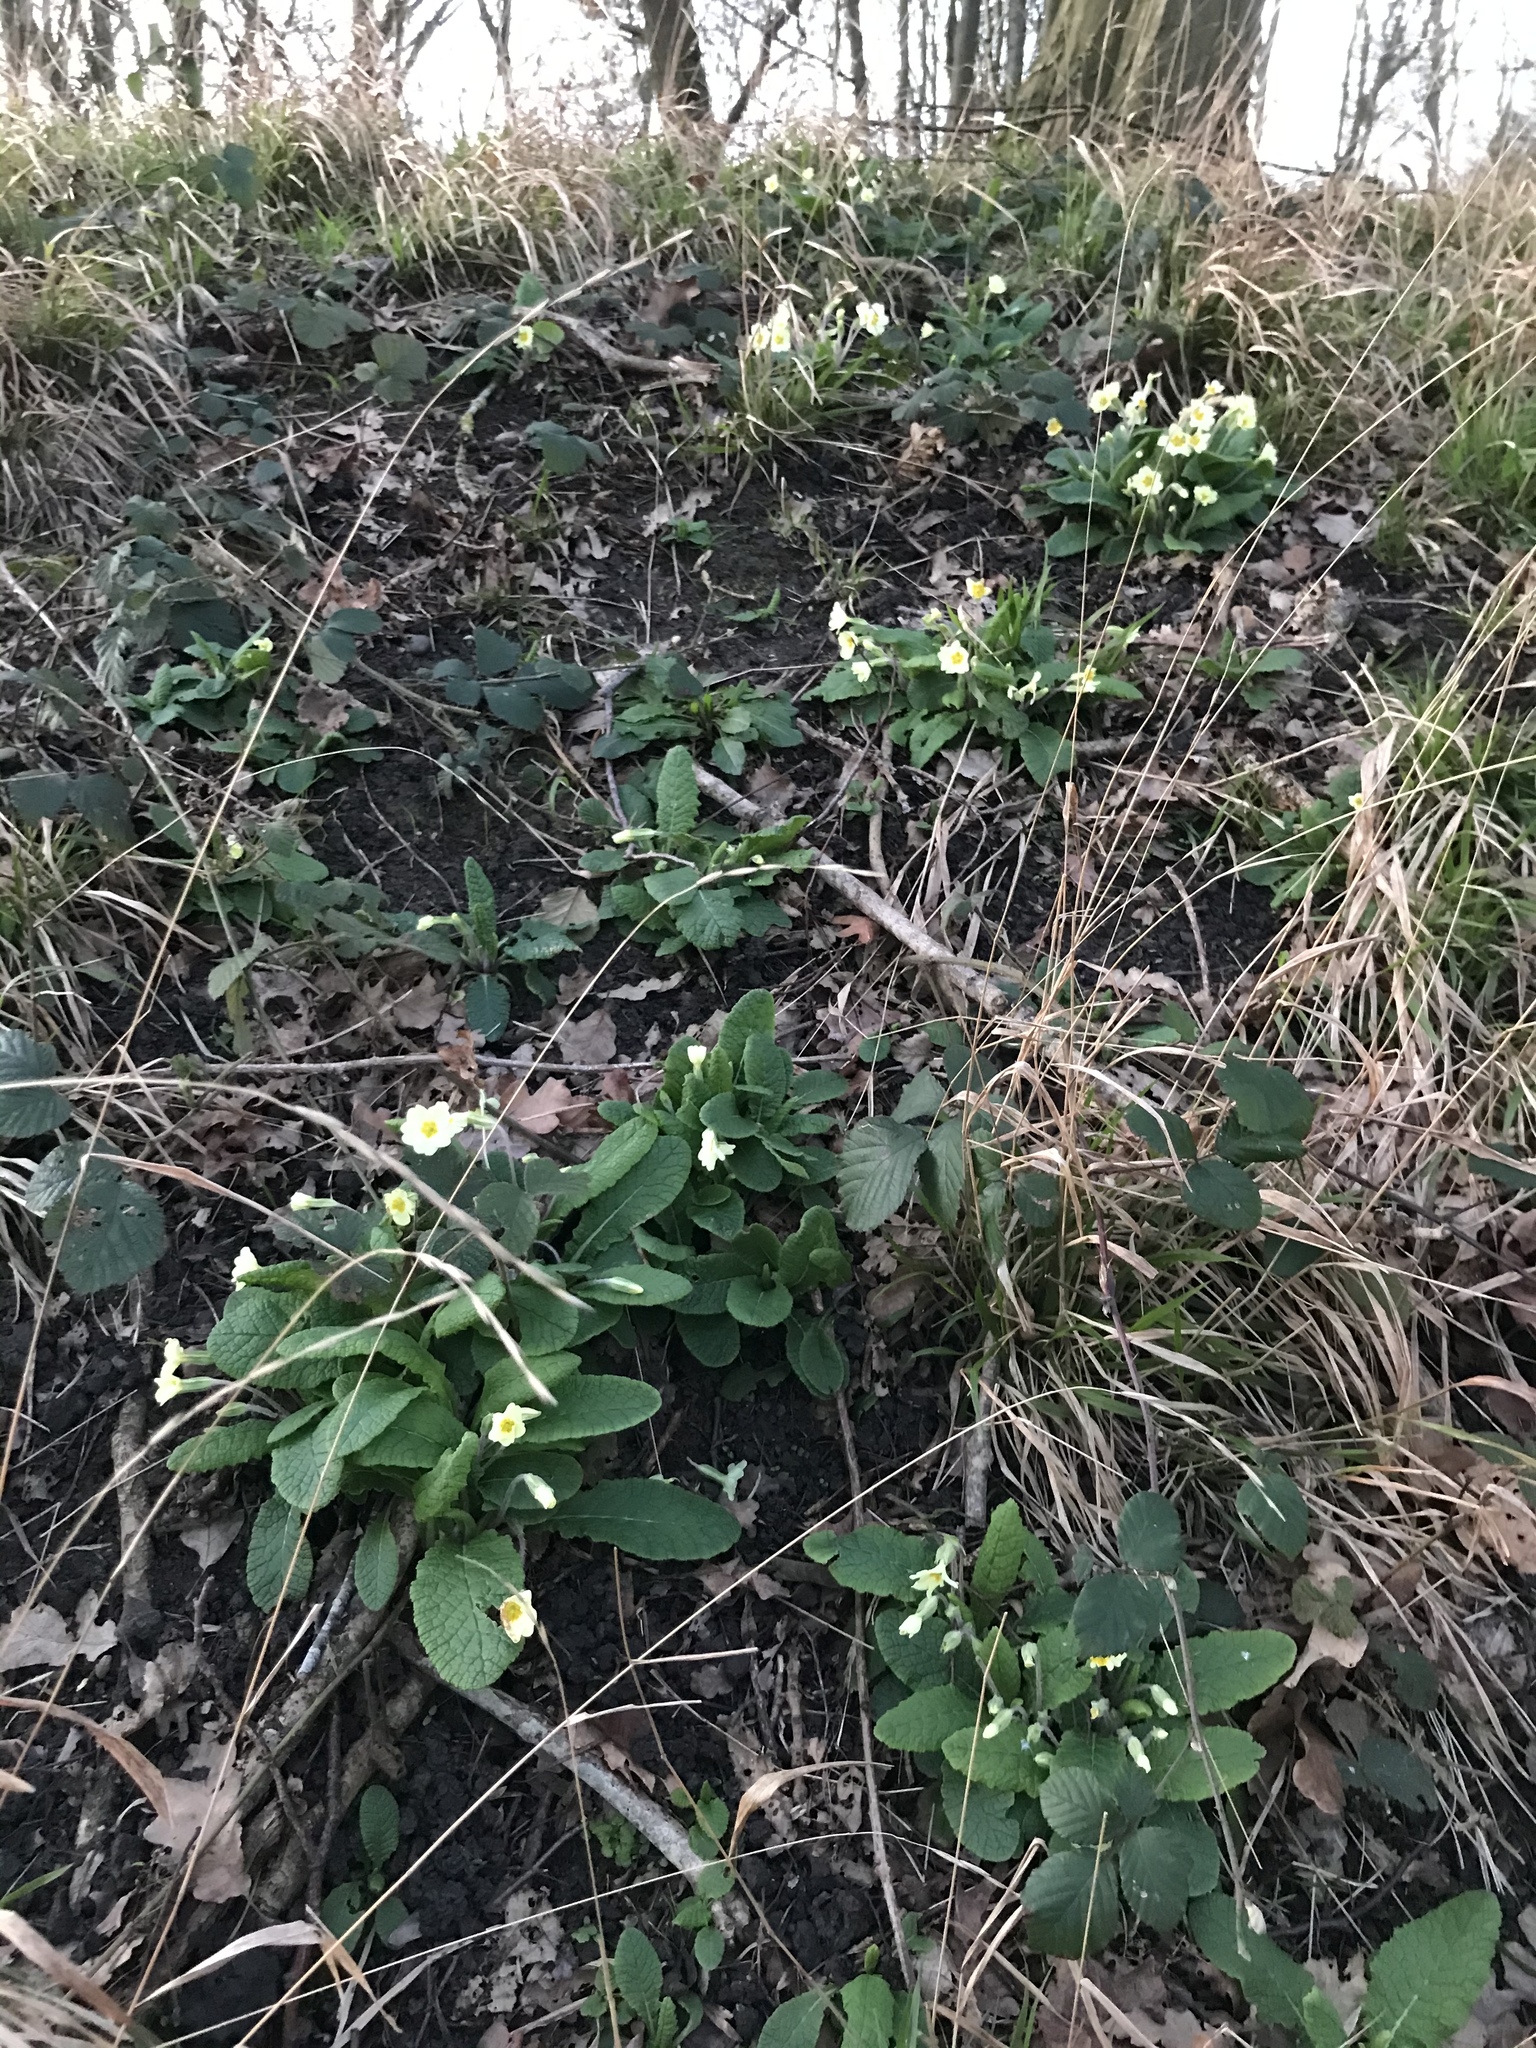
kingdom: Plantae
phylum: Tracheophyta
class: Magnoliopsida
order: Ericales
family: Primulaceae
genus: Primula
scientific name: Primula vulgaris
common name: Primrose
